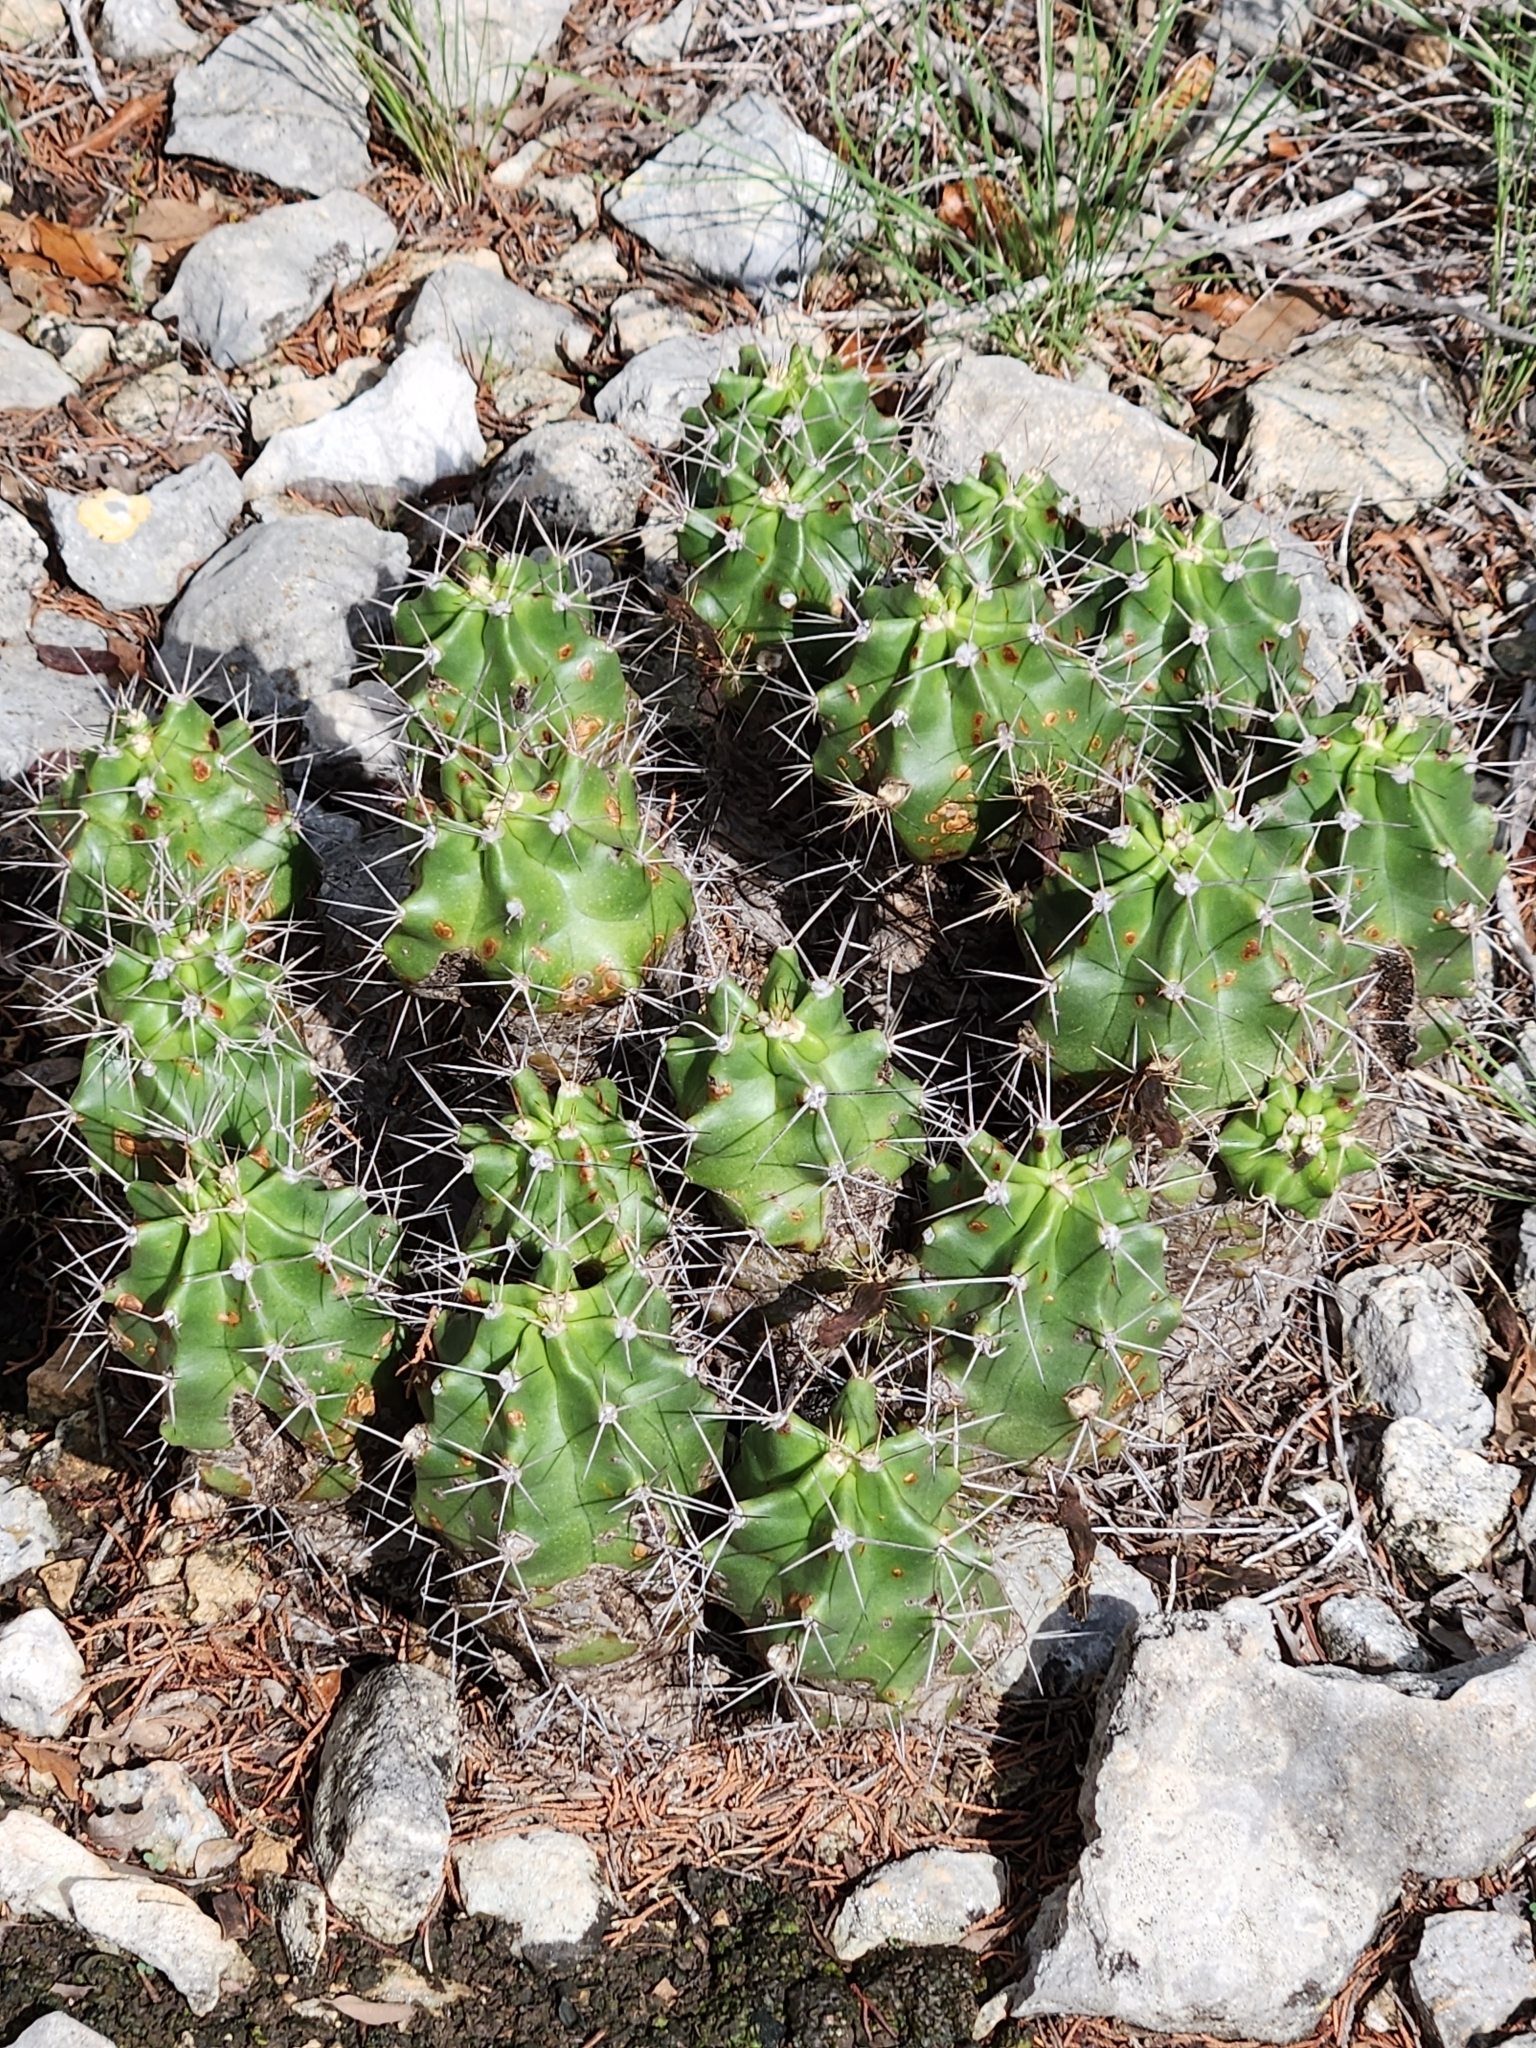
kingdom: Plantae
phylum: Tracheophyta
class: Magnoliopsida
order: Caryophyllales
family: Cactaceae
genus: Echinocereus
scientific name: Echinocereus coccineus
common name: Scarlet hedgehog cactus
